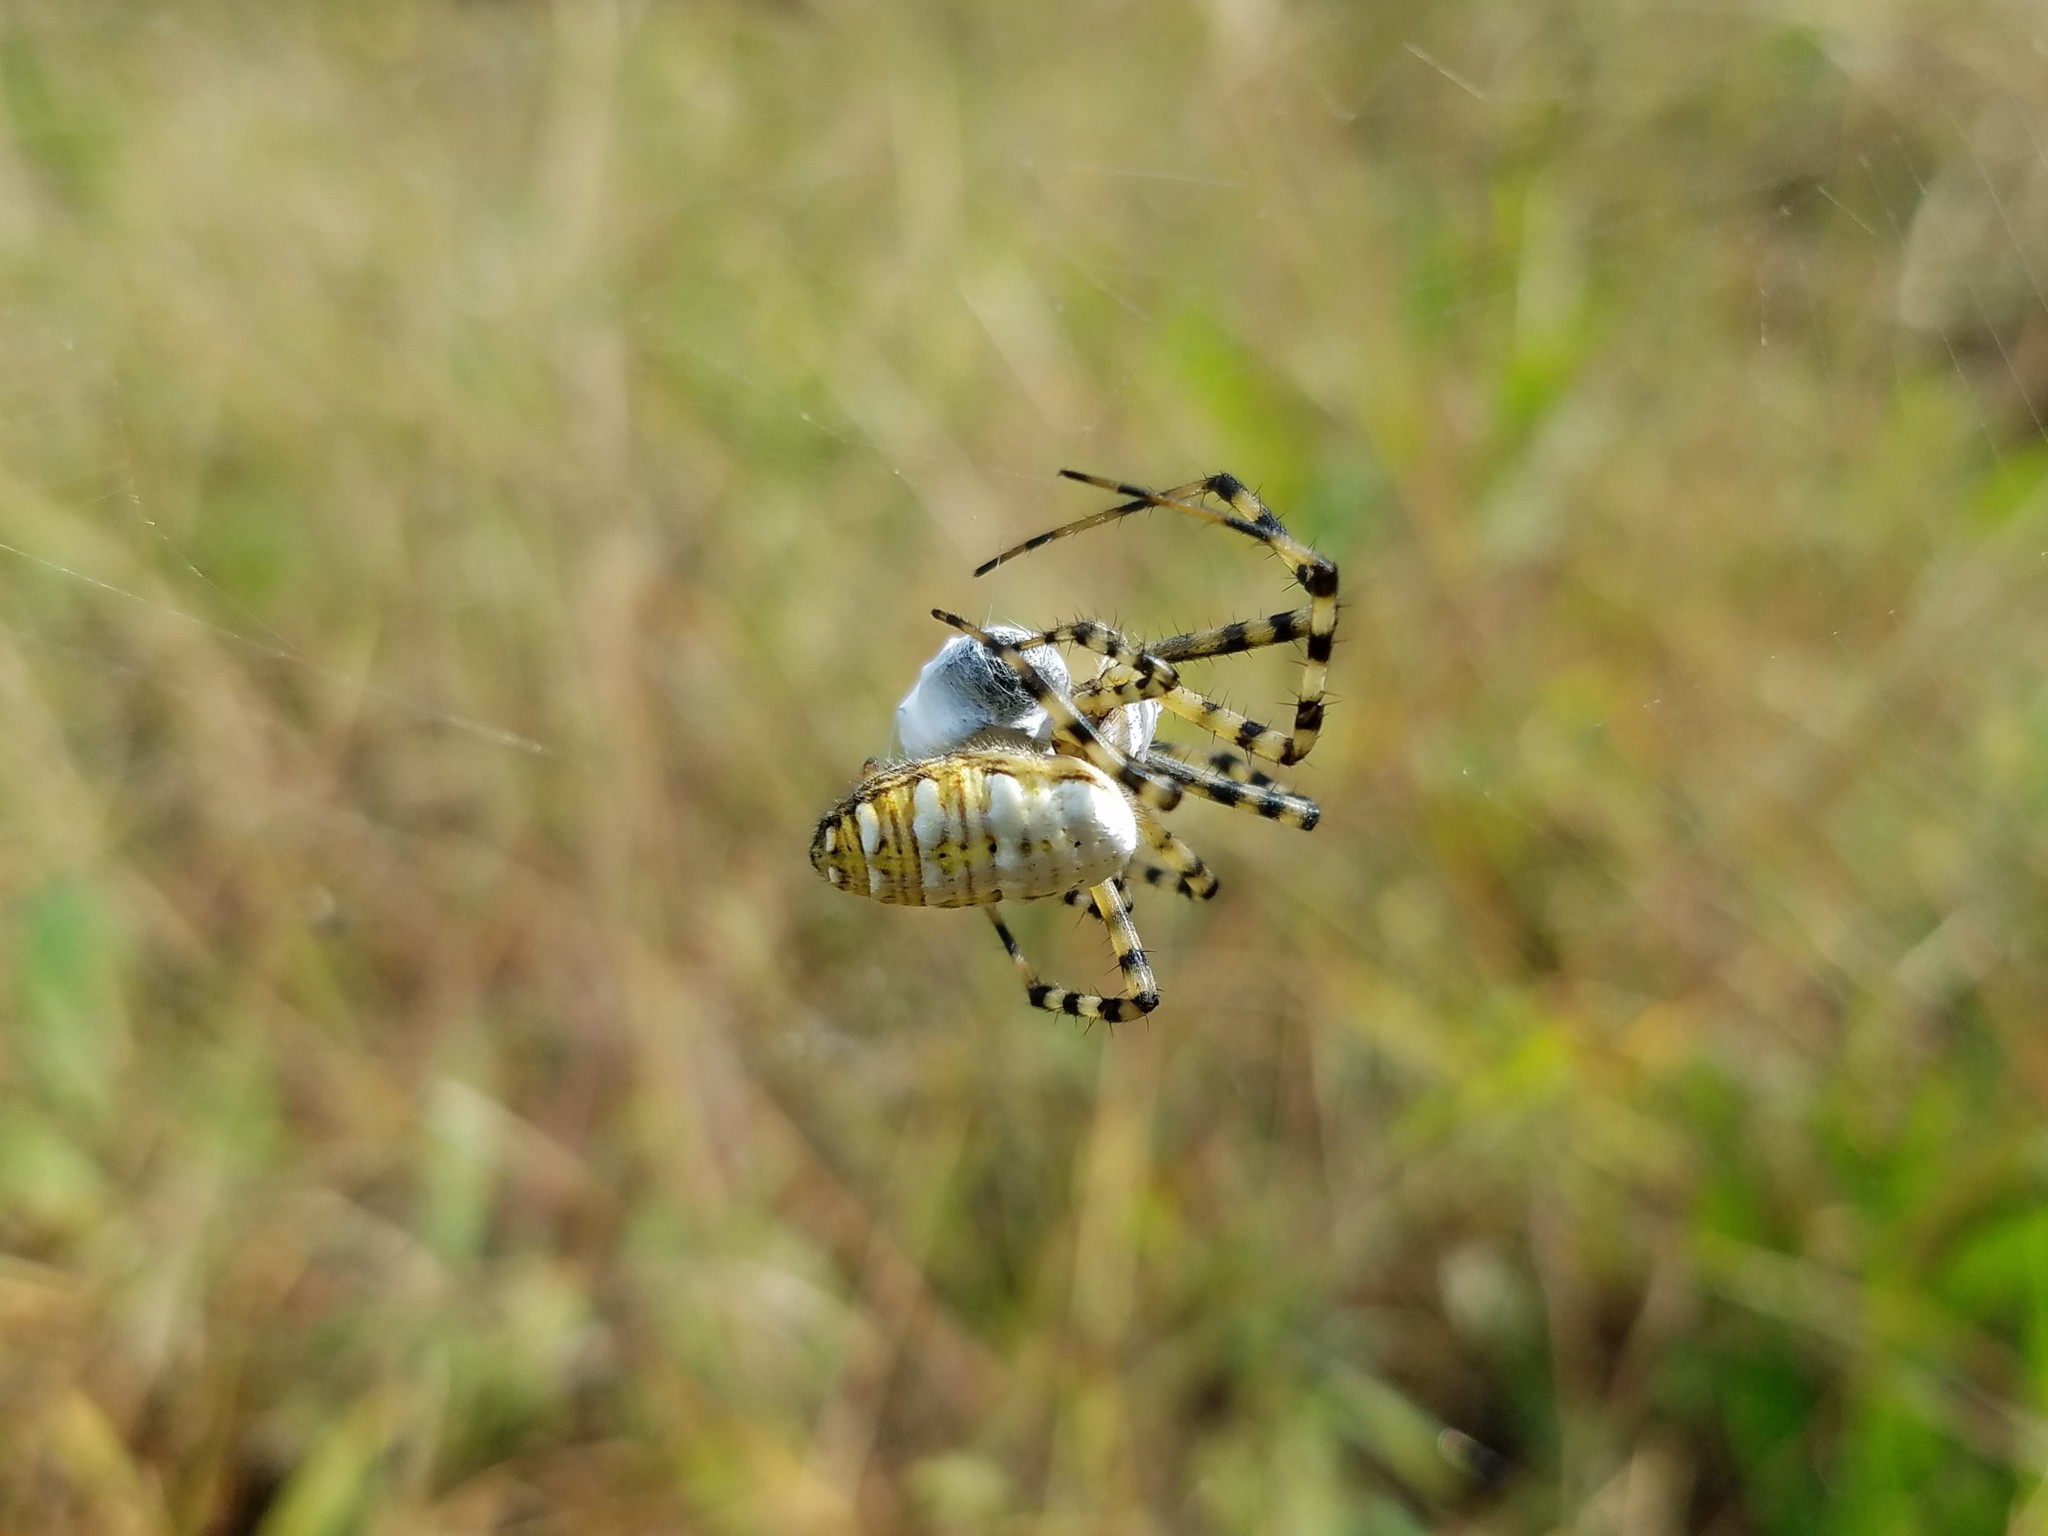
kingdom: Animalia
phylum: Arthropoda
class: Arachnida
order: Araneae
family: Araneidae
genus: Argiope
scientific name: Argiope trifasciata
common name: Banded garden spider
